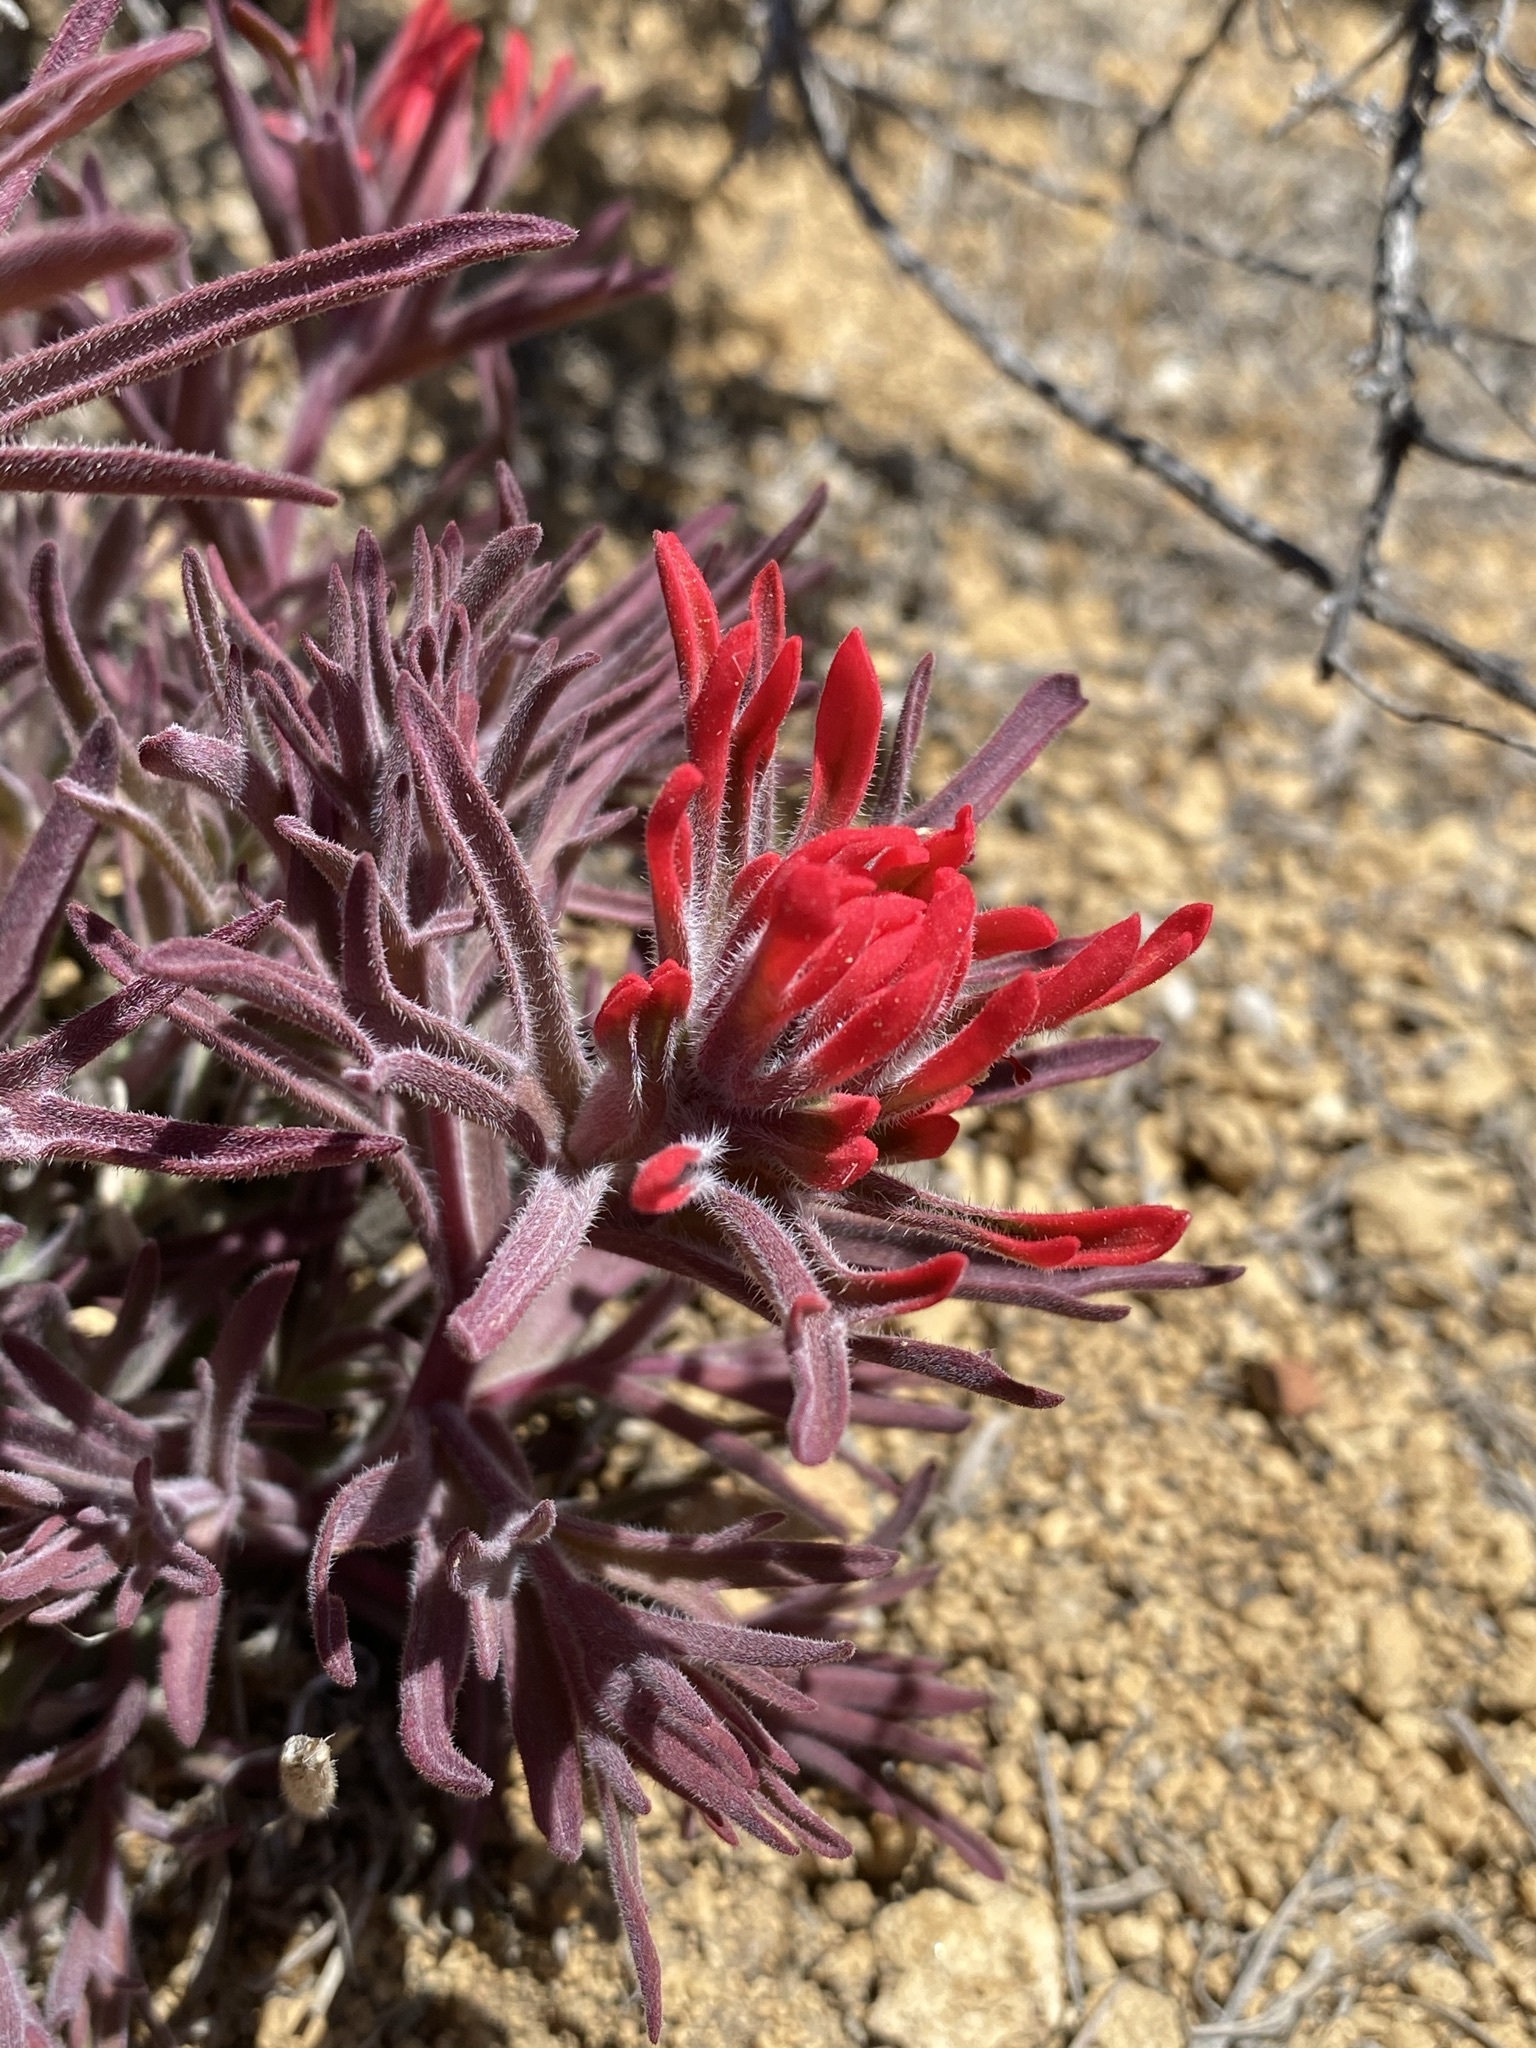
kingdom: Plantae
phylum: Tracheophyta
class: Magnoliopsida
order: Lamiales
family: Orobanchaceae
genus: Castilleja
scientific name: Castilleja chromosa
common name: Desert paintbrush
